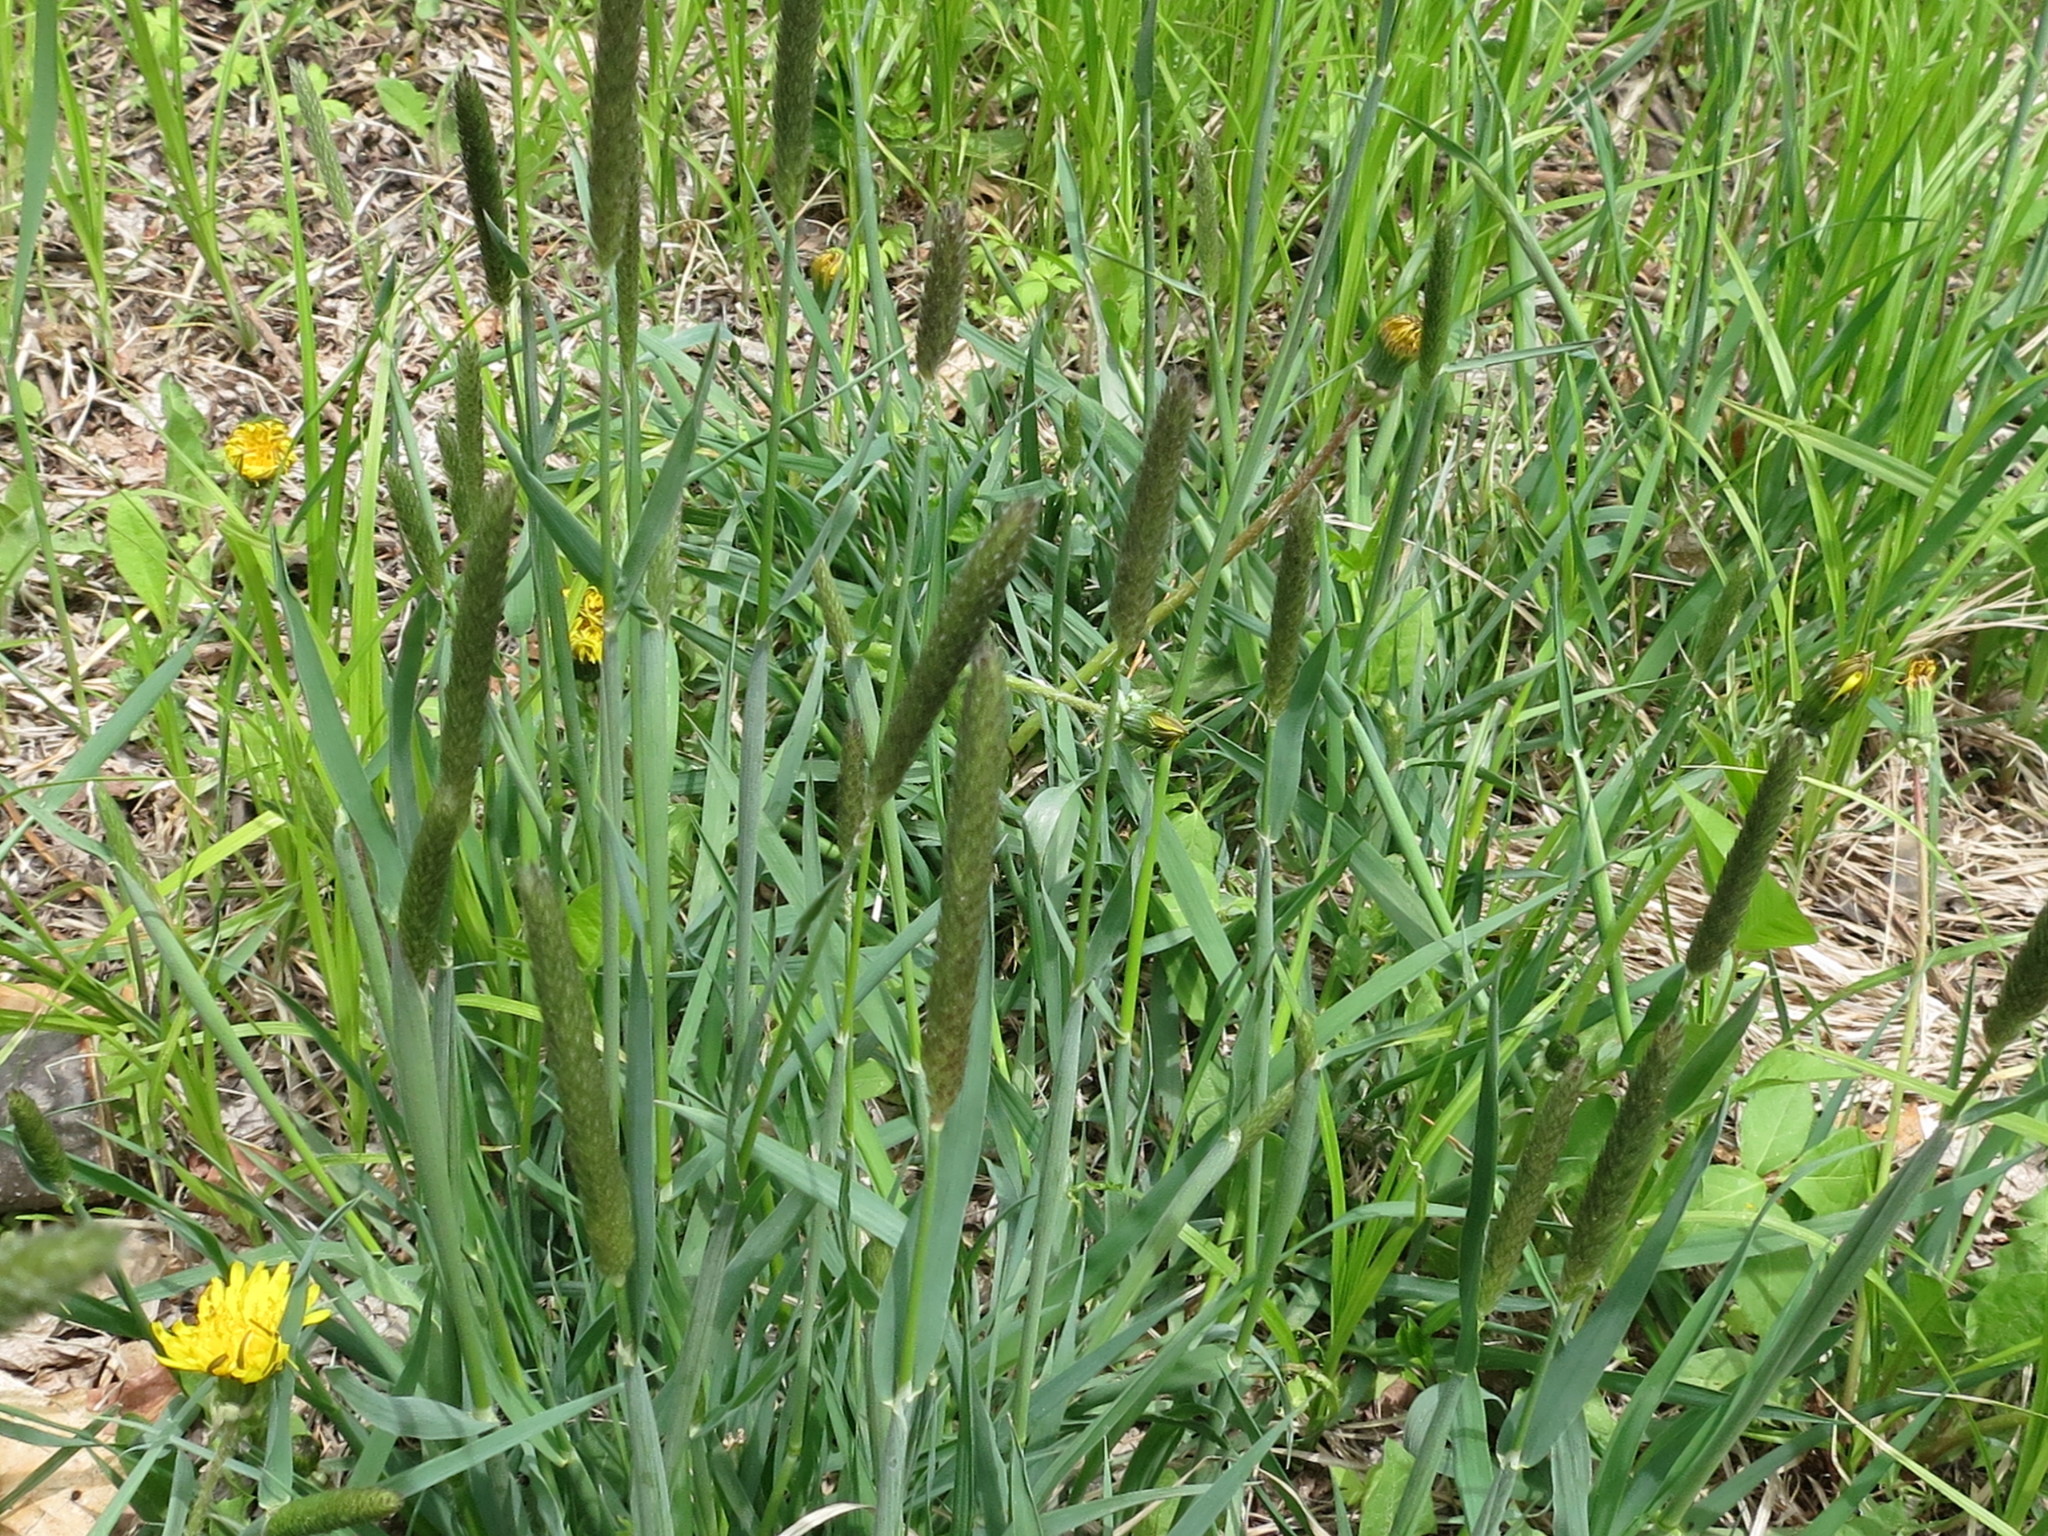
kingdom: Plantae
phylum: Tracheophyta
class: Liliopsida
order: Poales
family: Poaceae
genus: Alopecurus
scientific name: Alopecurus pratensis
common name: Meadow foxtail
